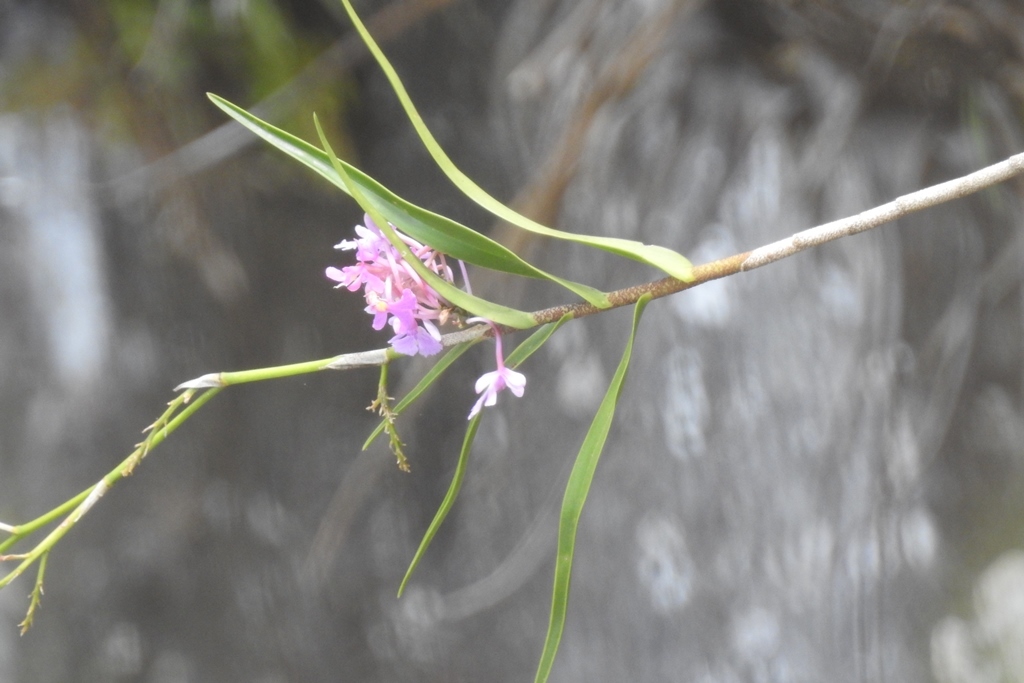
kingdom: Plantae
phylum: Tracheophyta
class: Liliopsida
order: Asparagales
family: Orchidaceae
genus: Epidendrum
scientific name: Epidendrum myrianthum
